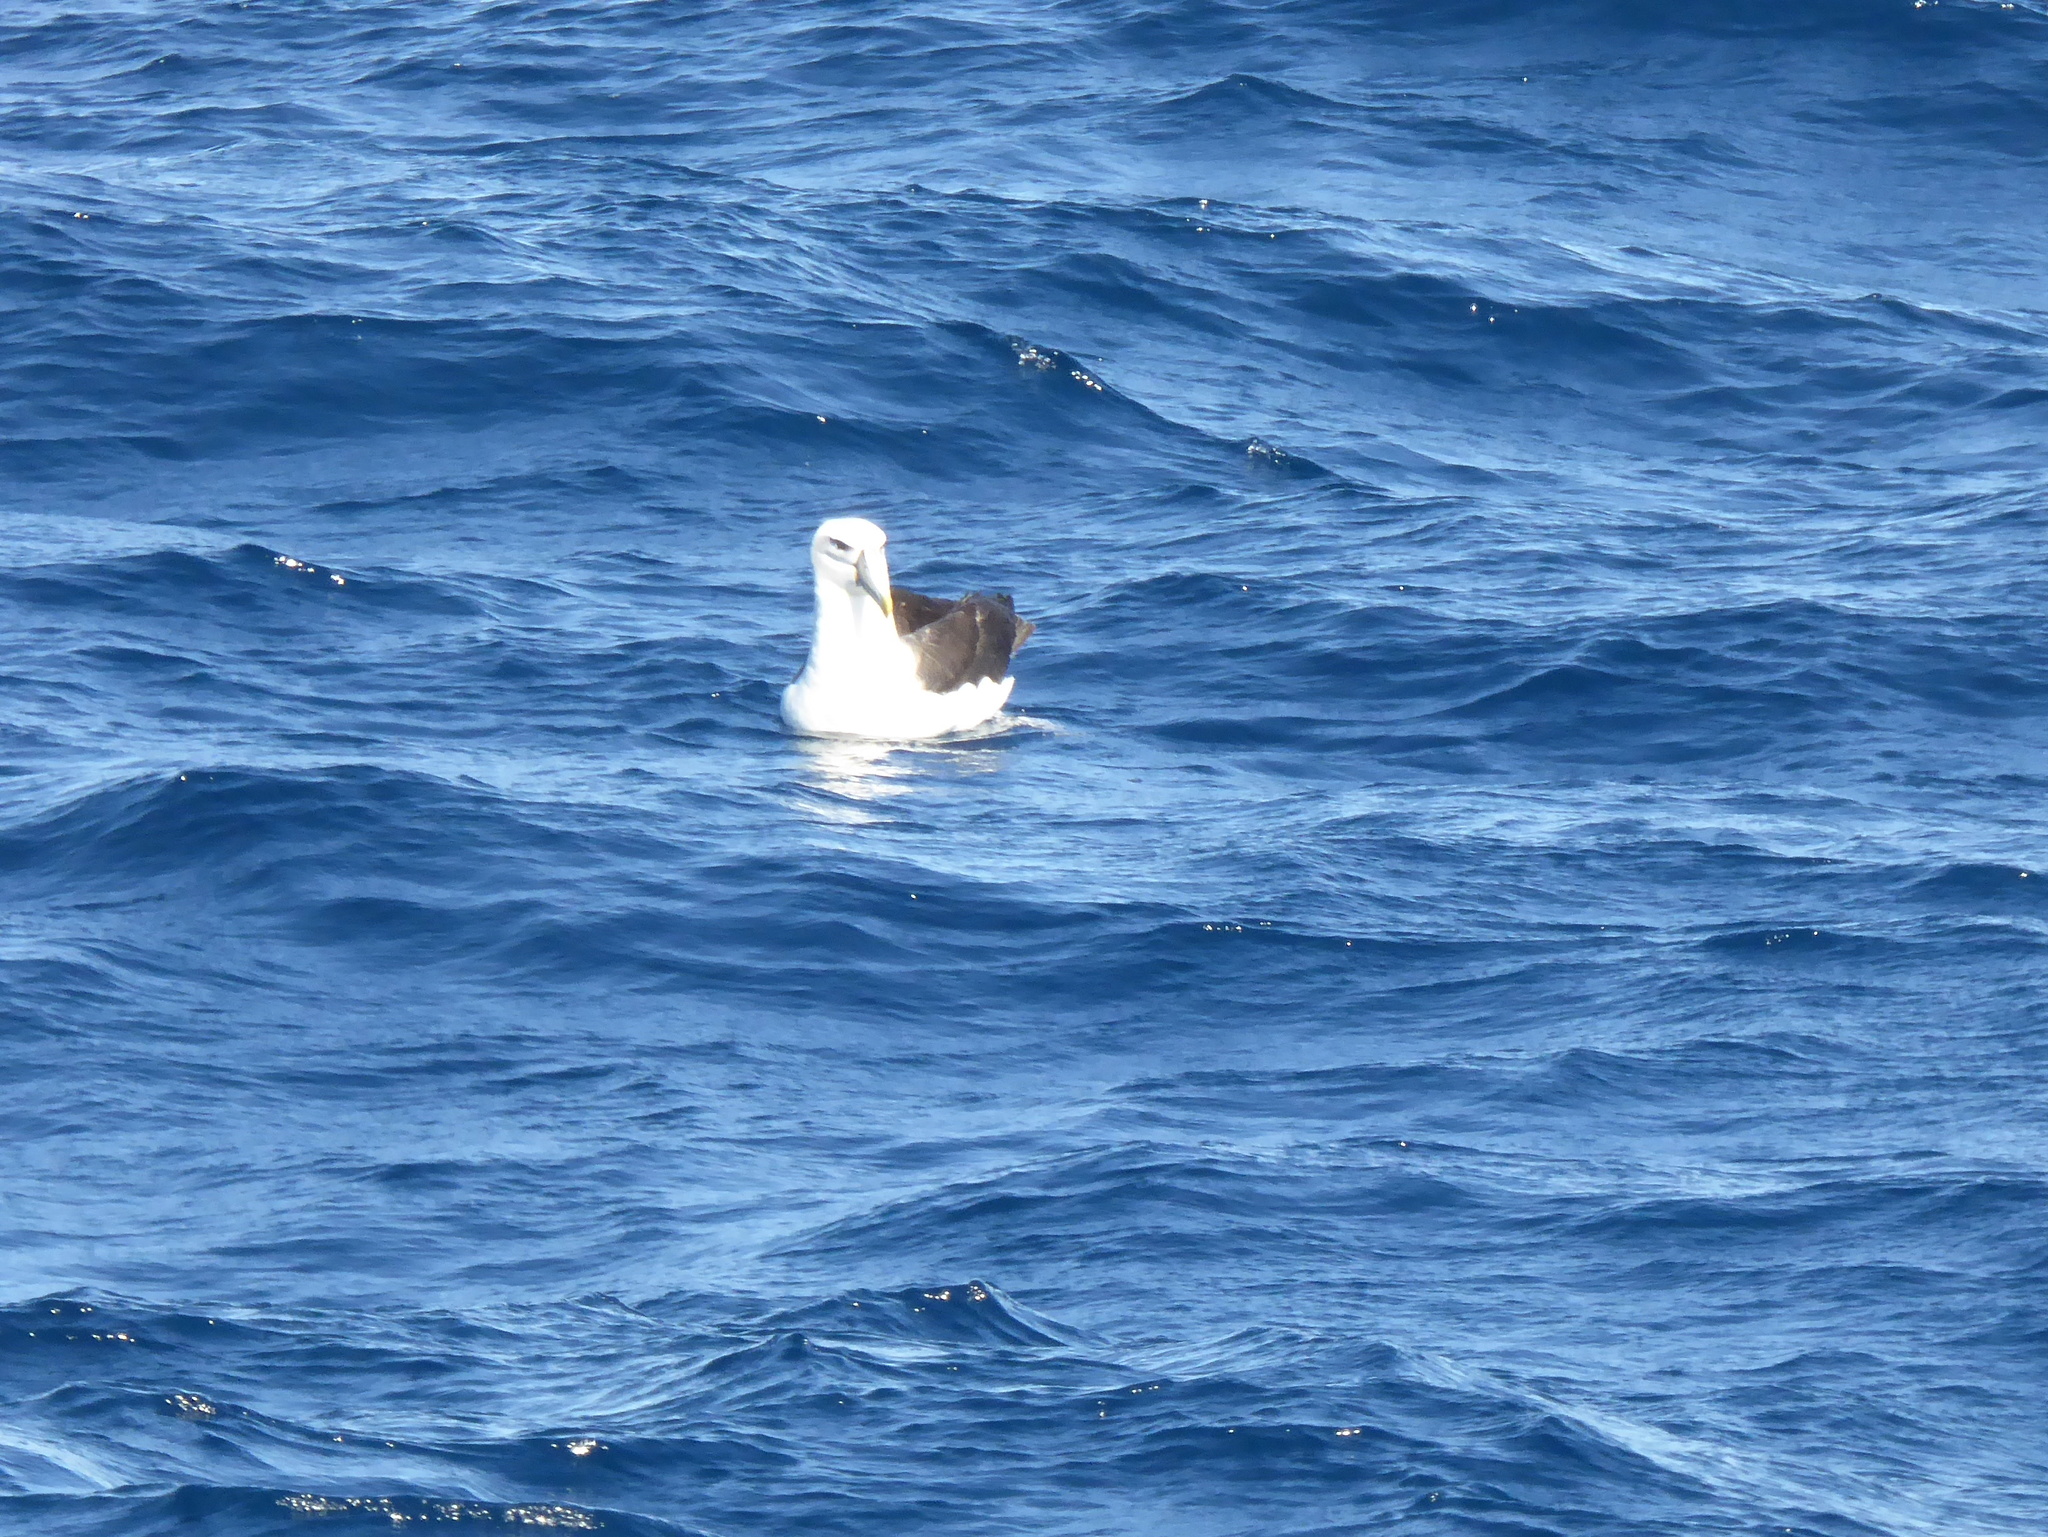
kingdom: Animalia
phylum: Chordata
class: Aves
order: Procellariiformes
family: Diomedeidae
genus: Thalassarche
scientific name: Thalassarche cauta
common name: Shy albatross
